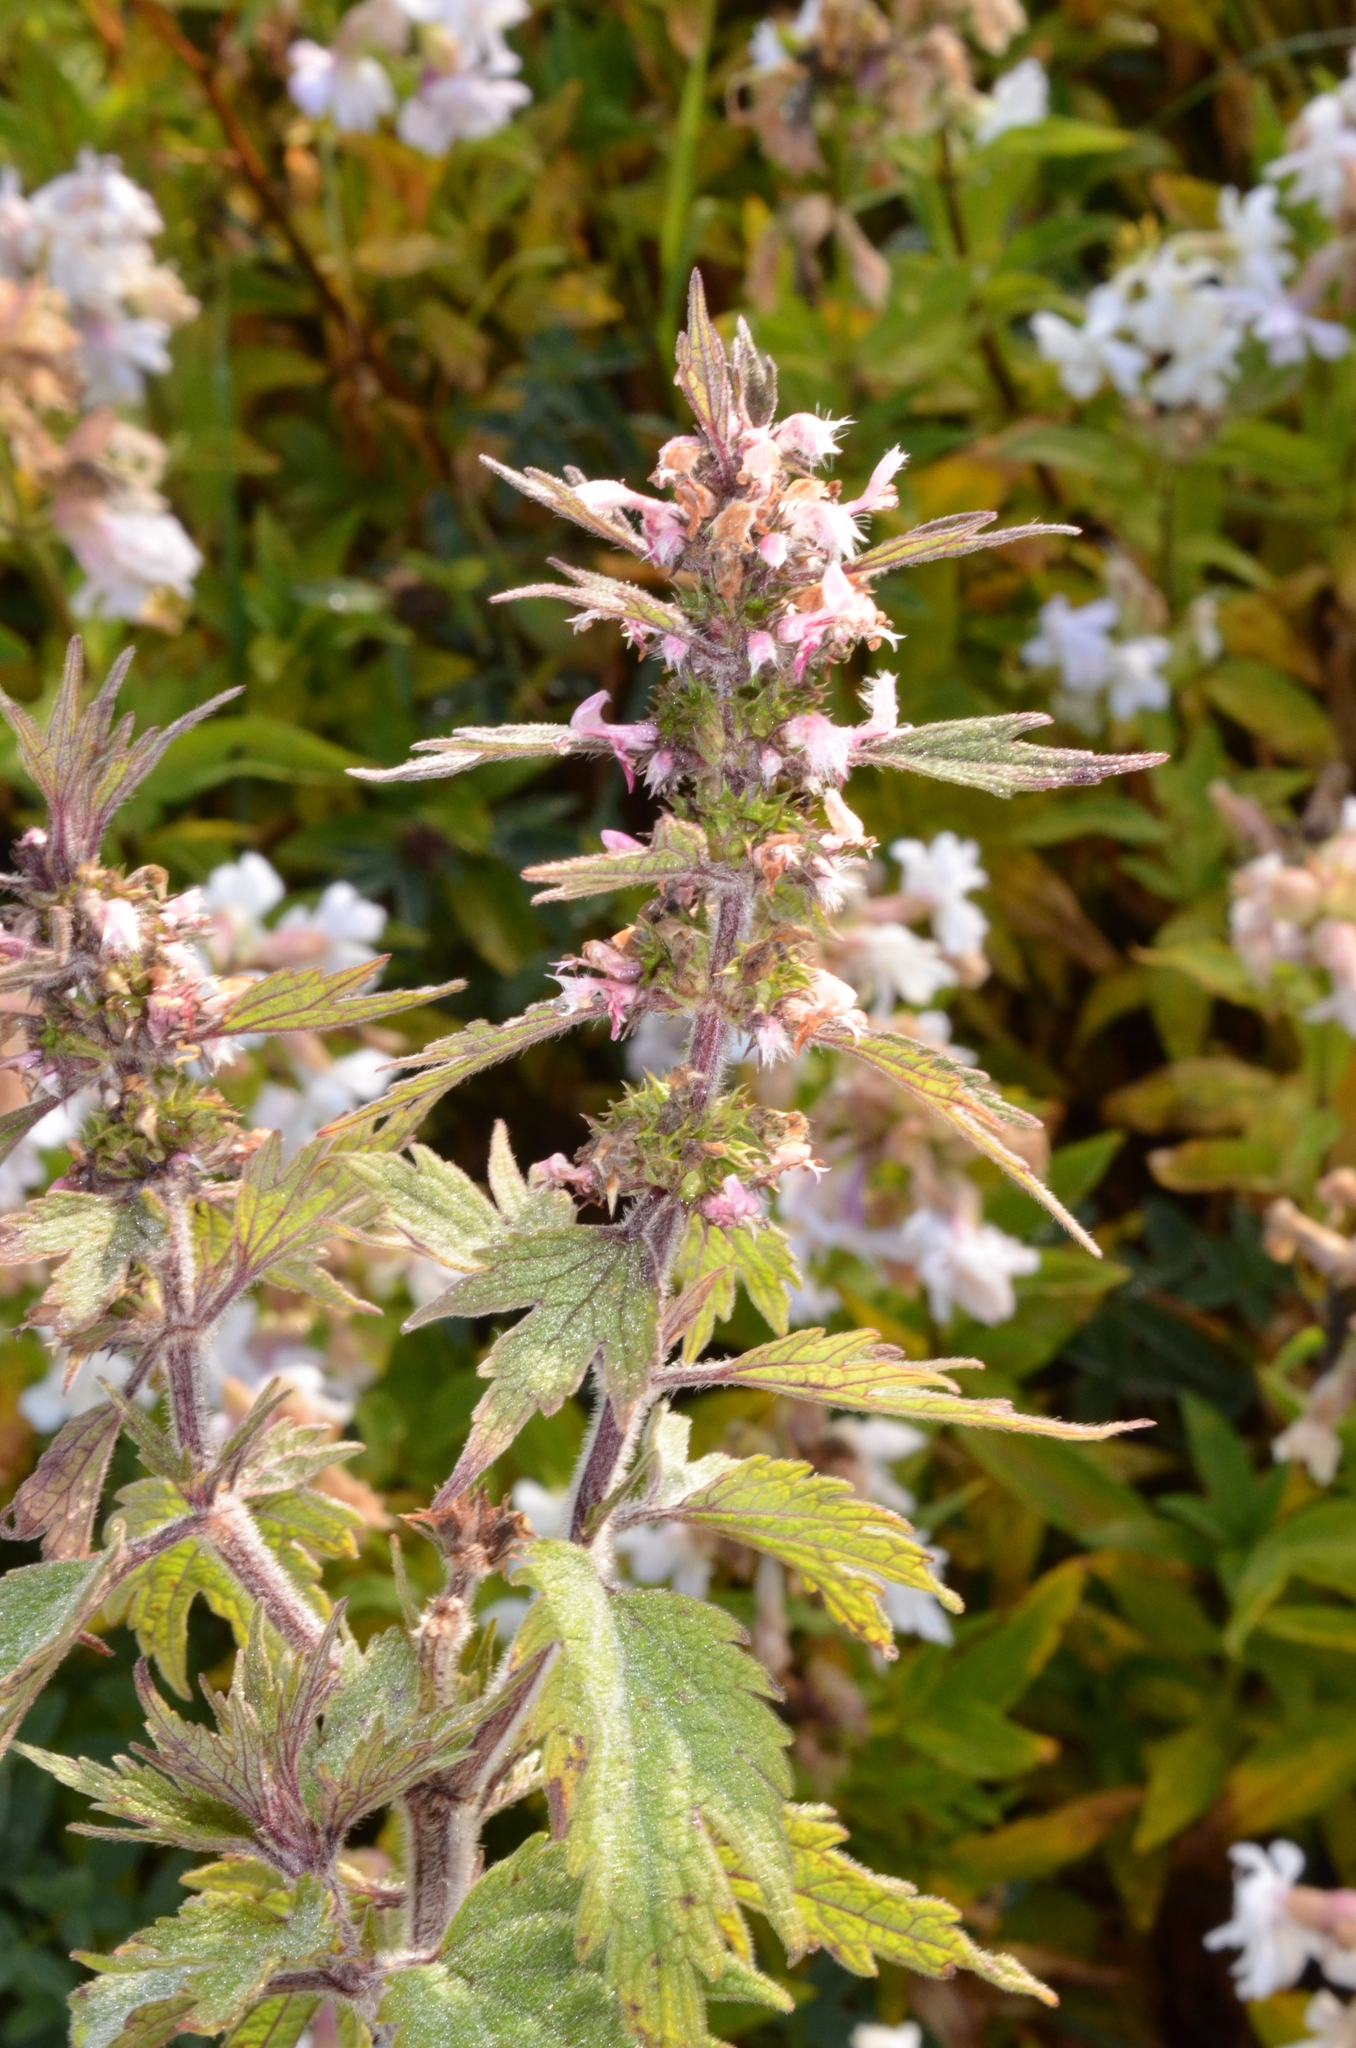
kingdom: Plantae
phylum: Tracheophyta
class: Magnoliopsida
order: Lamiales
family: Lamiaceae
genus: Leonurus
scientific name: Leonurus quinquelobatus
